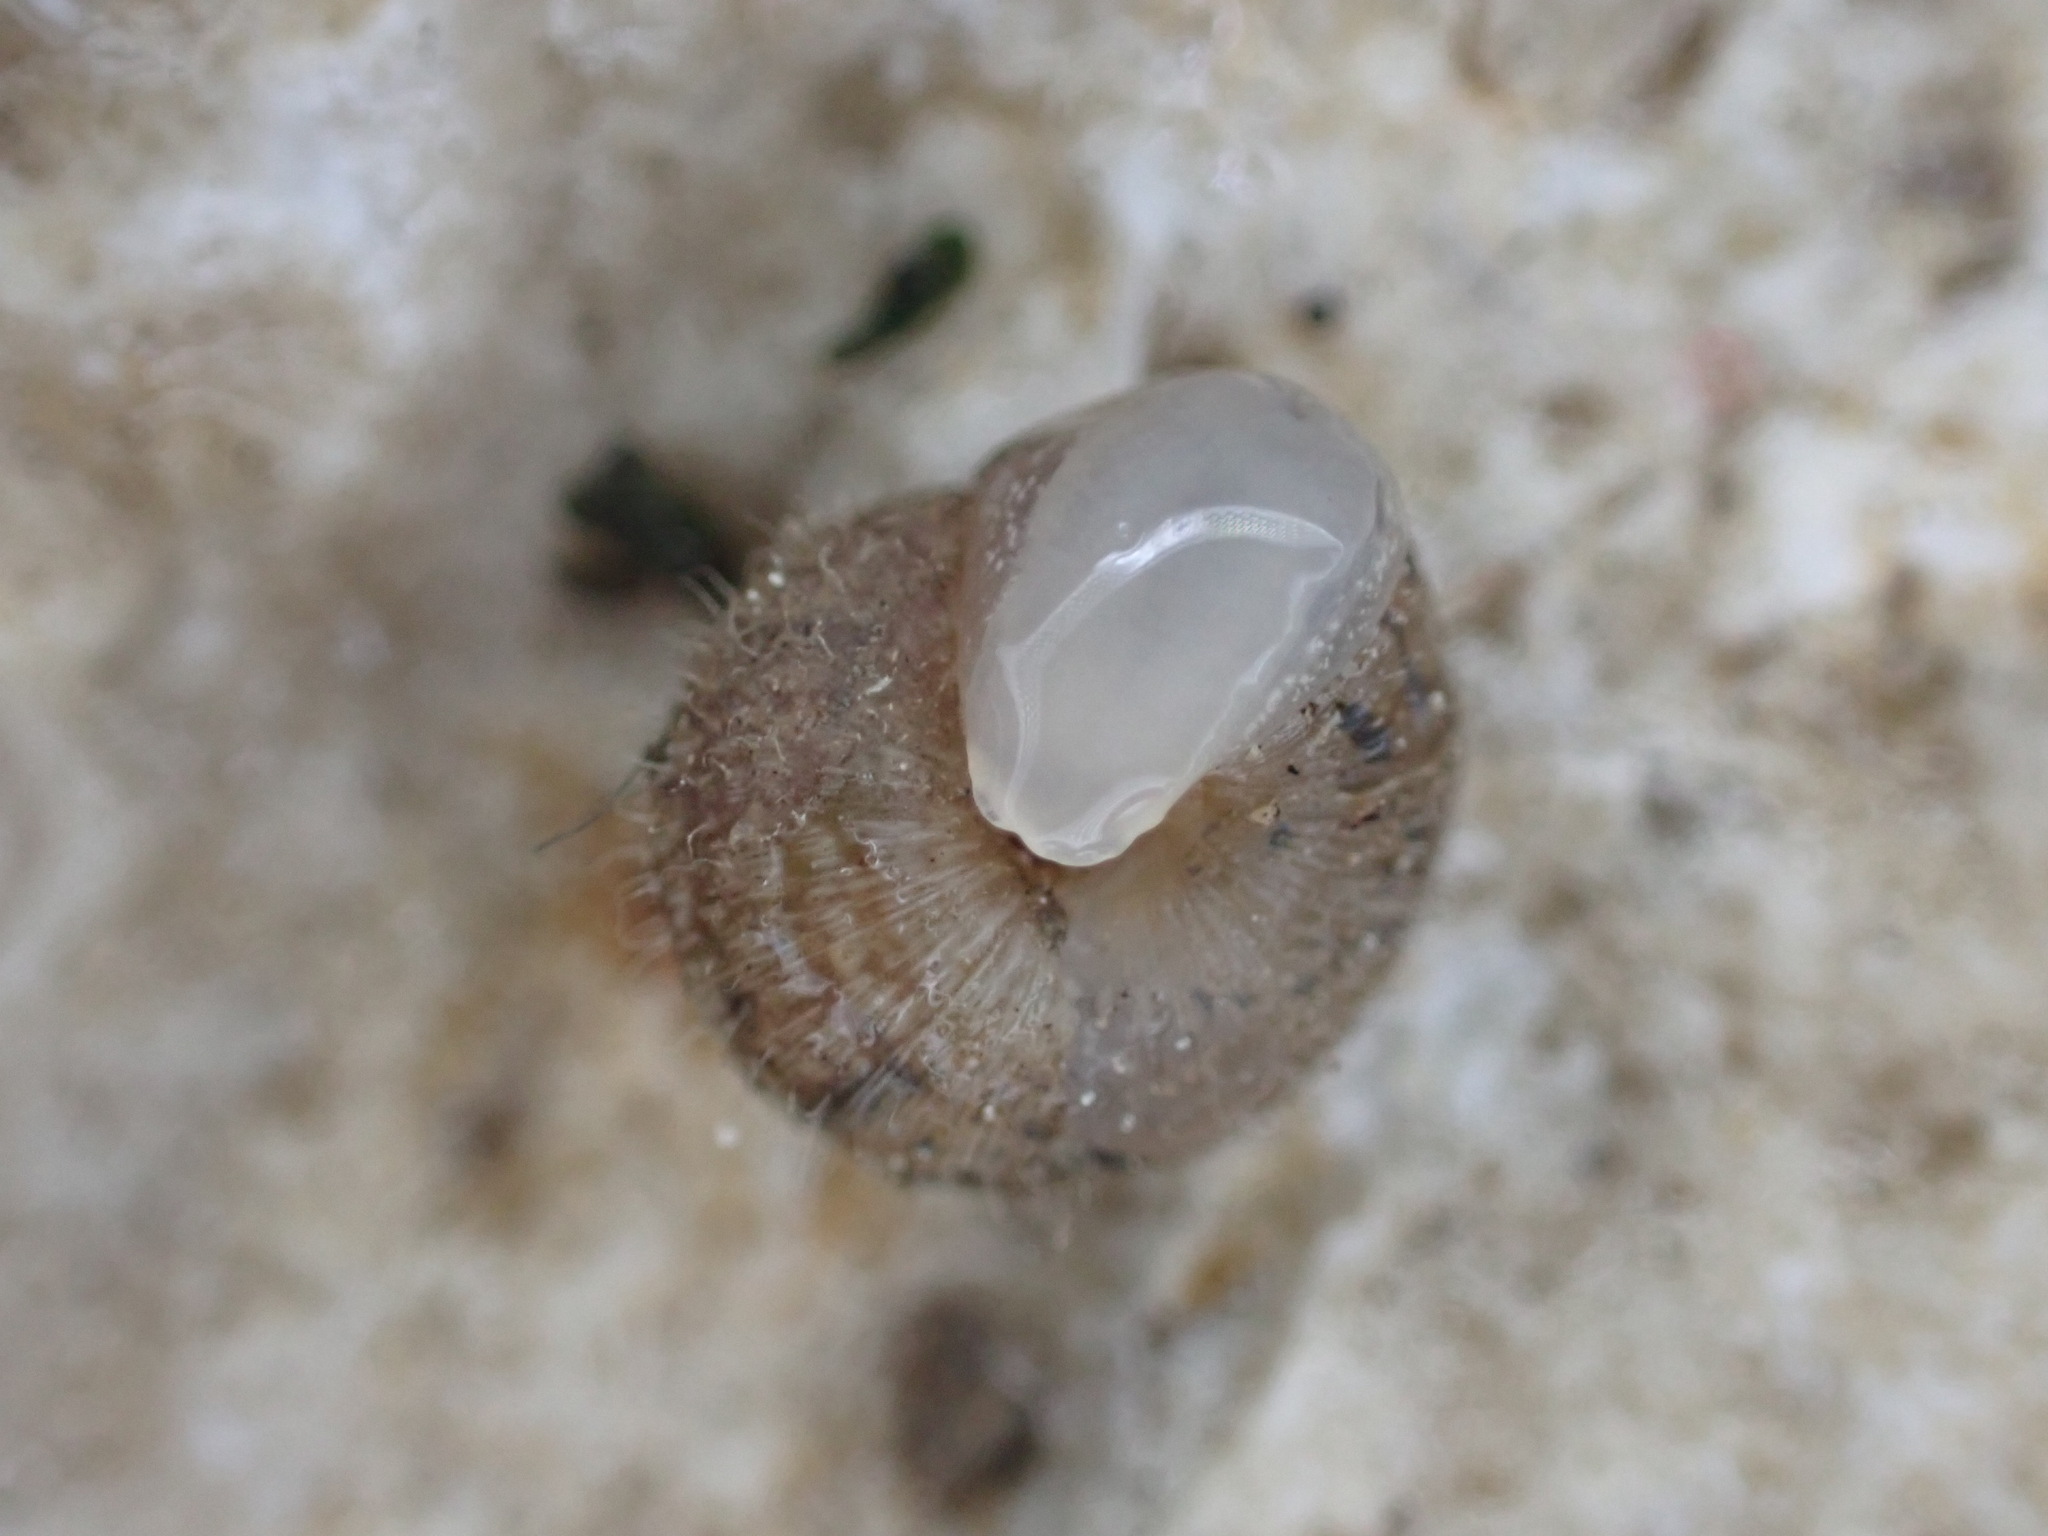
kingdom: Animalia
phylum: Mollusca
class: Gastropoda
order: Stylommatophora
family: Geomitridae
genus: Xerotricha
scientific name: Xerotricha conspurcata
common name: Snail
